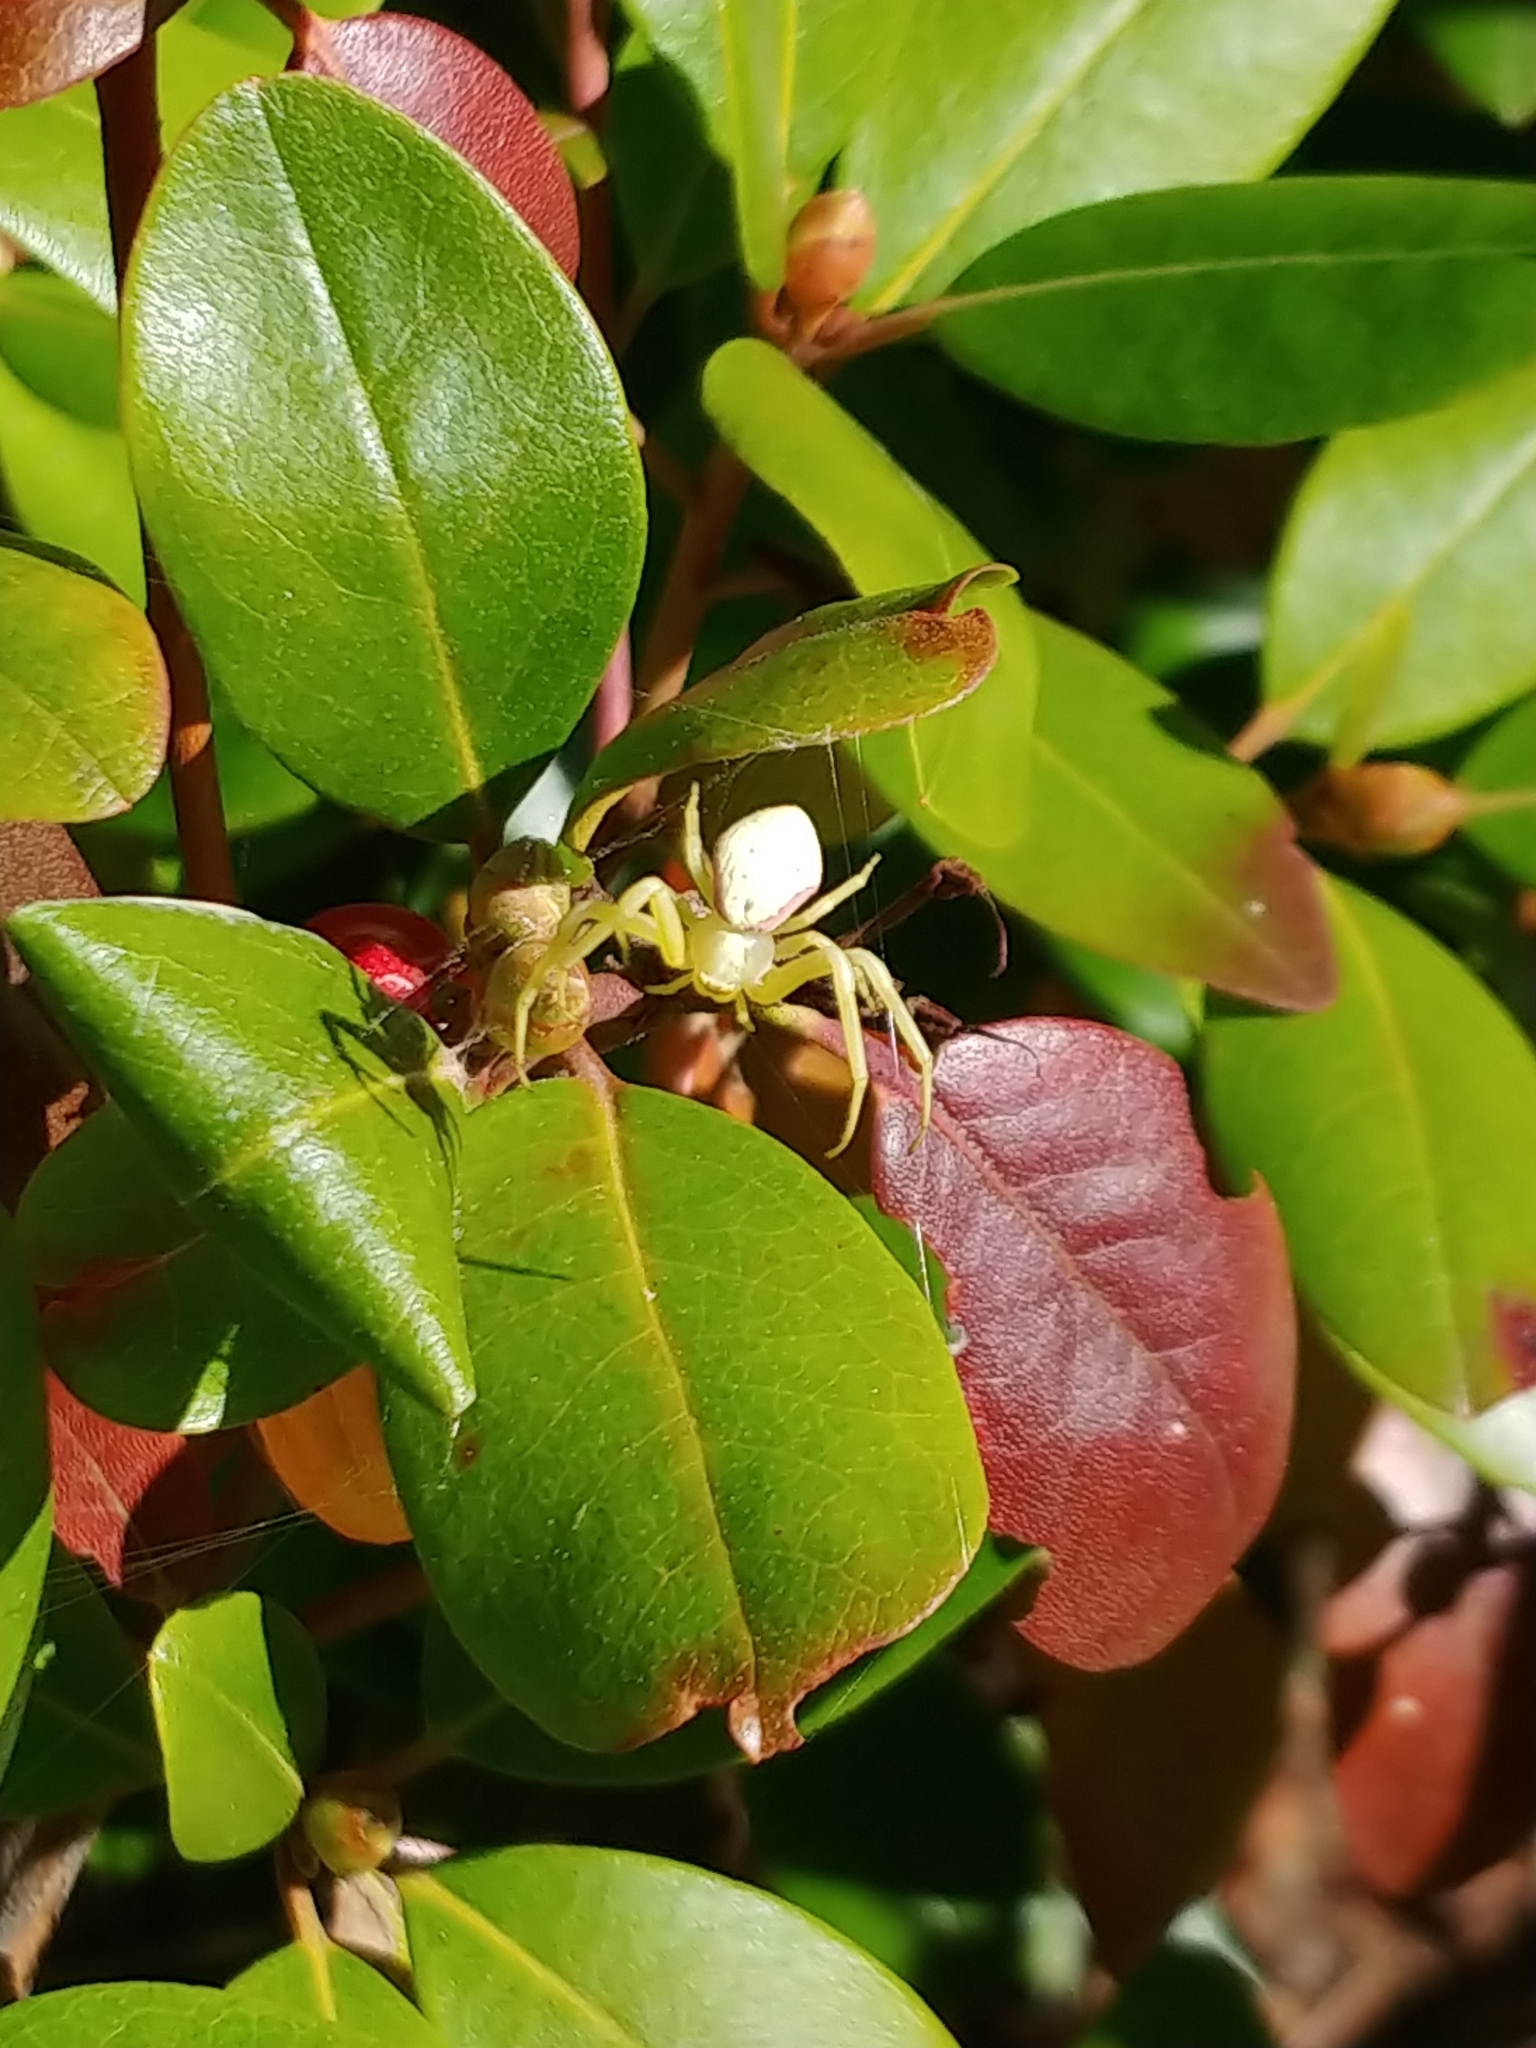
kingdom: Animalia
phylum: Arthropoda
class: Arachnida
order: Araneae
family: Thomisidae
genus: Misumena
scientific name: Misumena vatia
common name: Goldenrod crab spider
